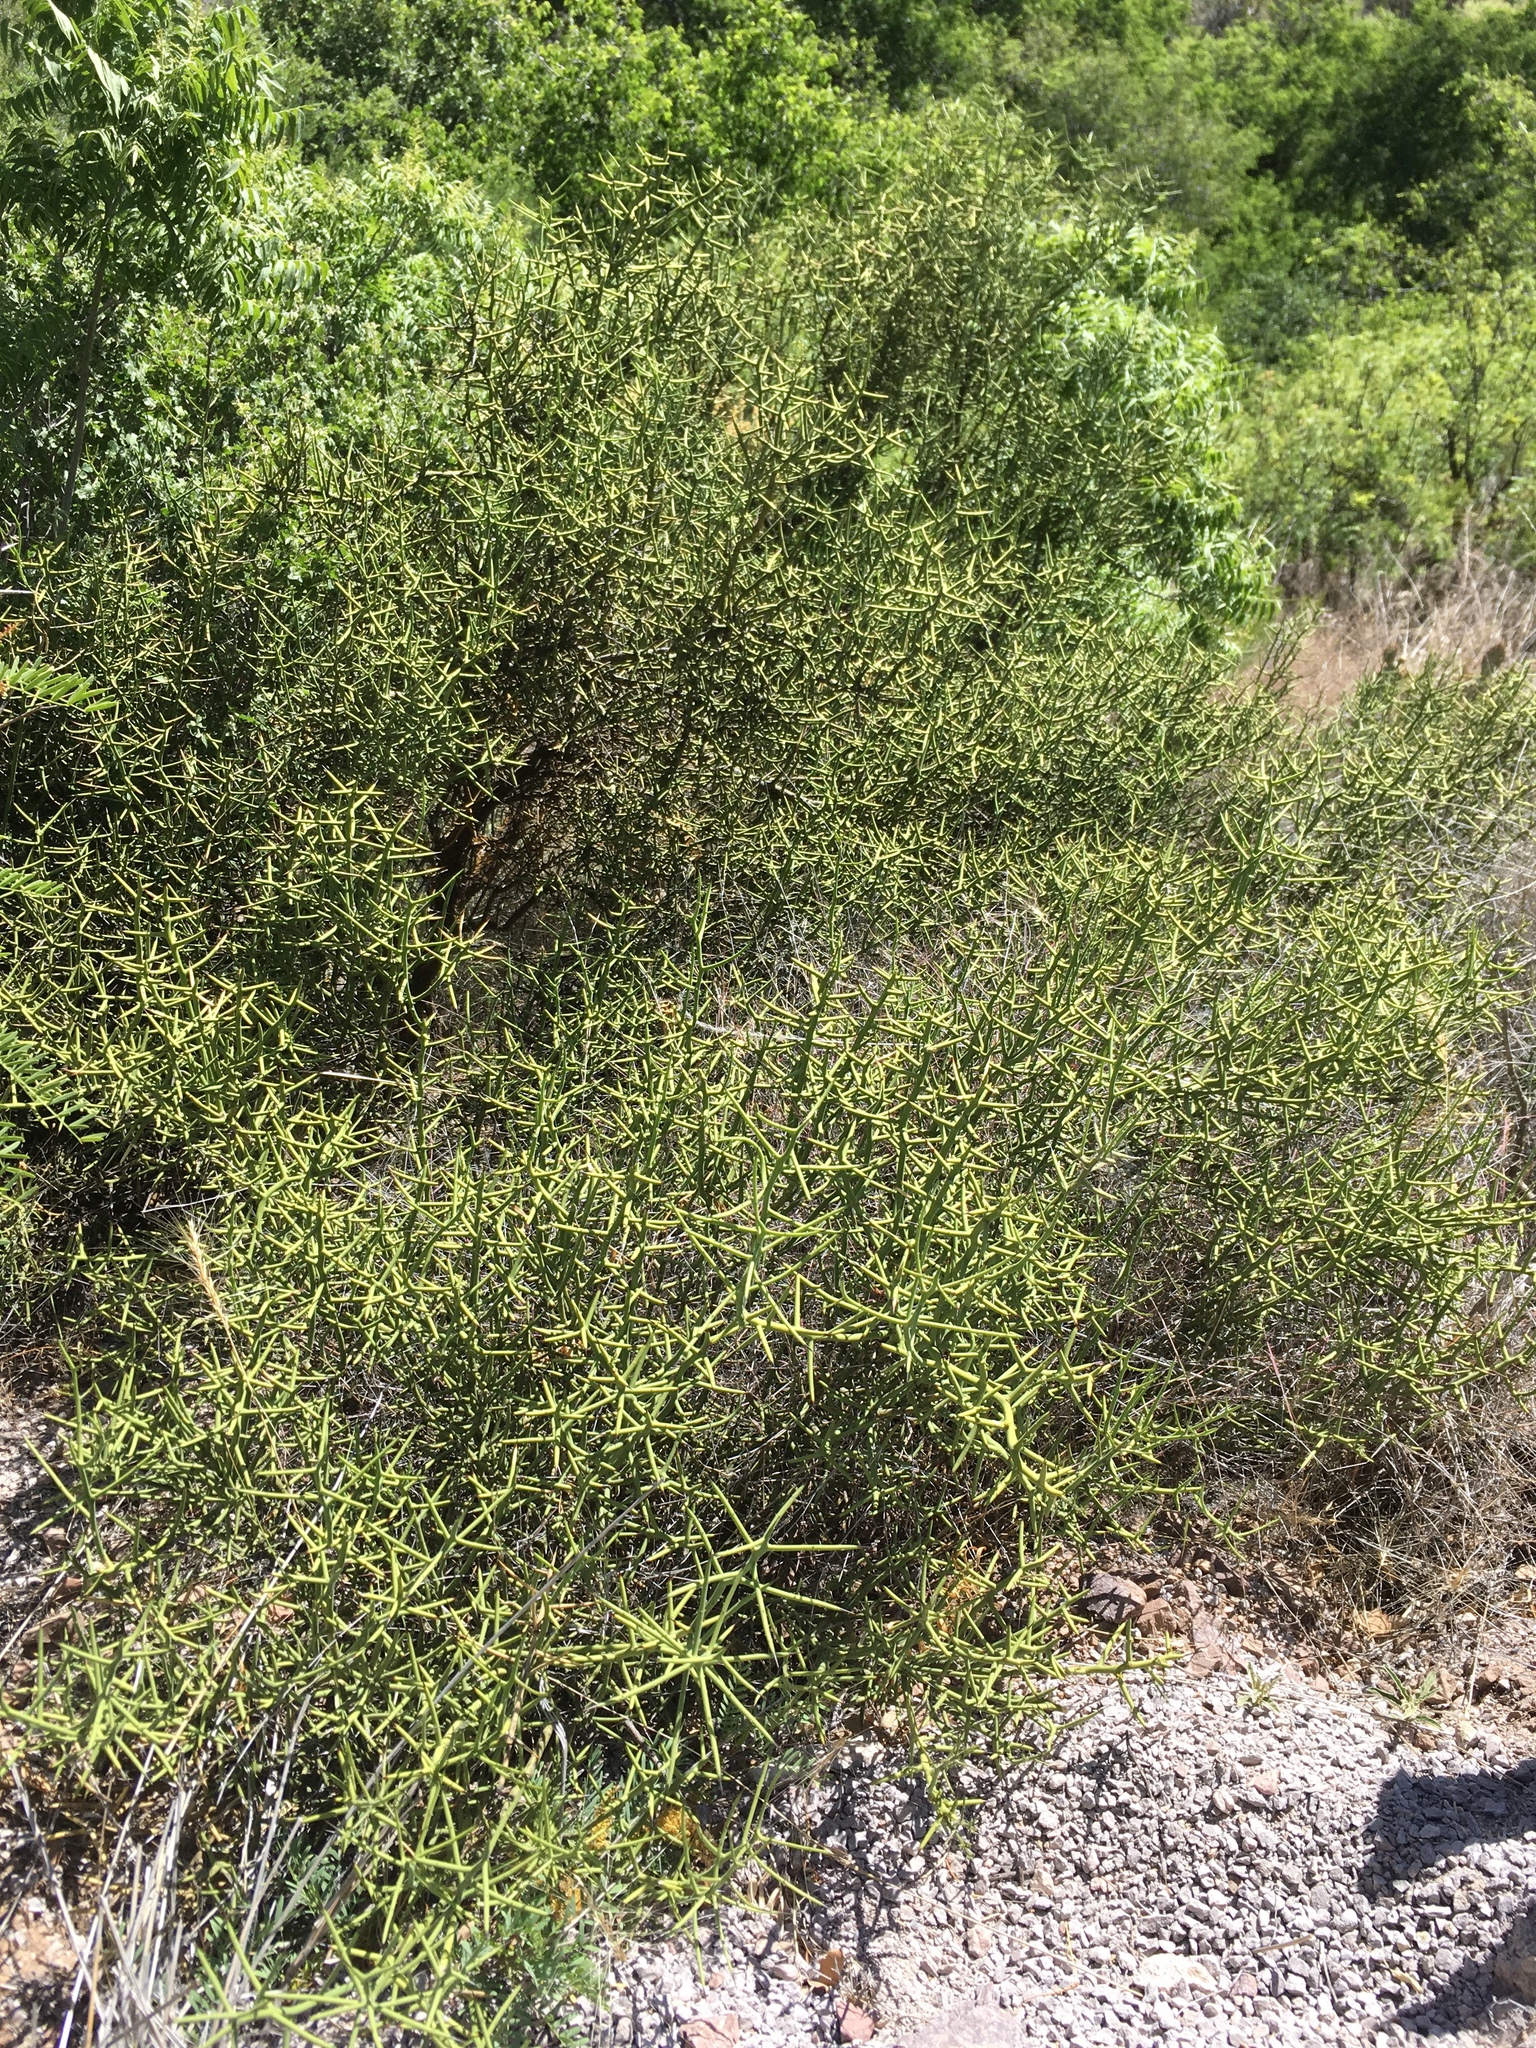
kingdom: Plantae
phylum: Tracheophyta
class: Magnoliopsida
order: Brassicales
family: Koeberliniaceae
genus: Koeberlinia
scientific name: Koeberlinia spinosa
